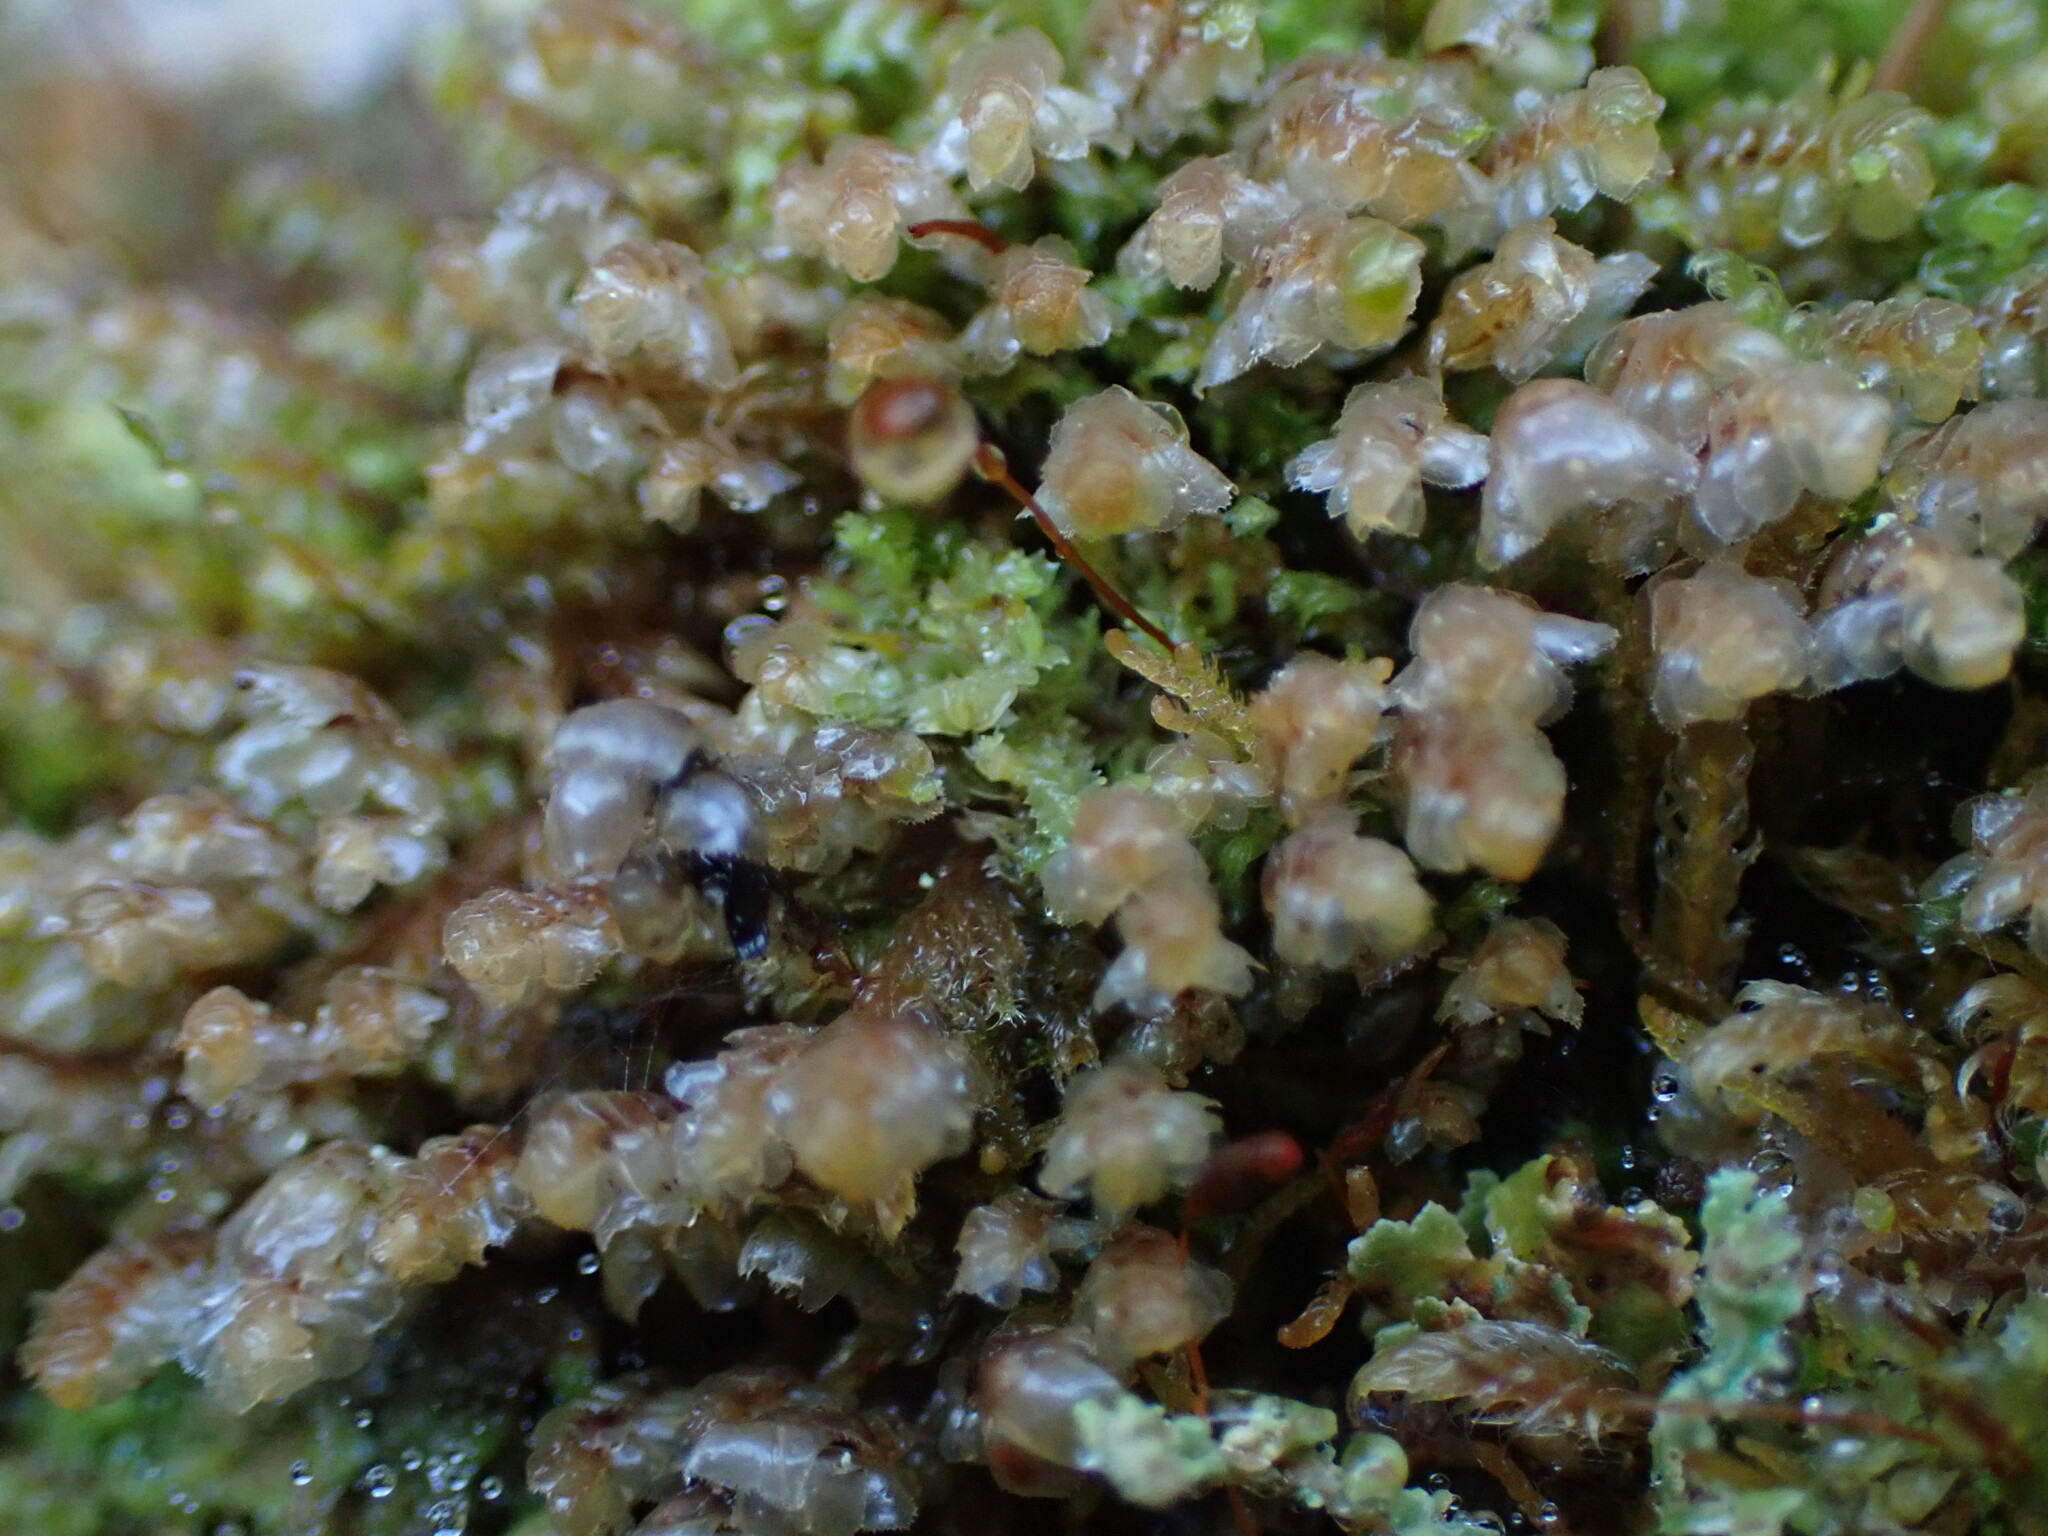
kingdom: Plantae
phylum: Marchantiophyta
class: Jungermanniopsida
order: Jungermanniales
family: Scapaniaceae
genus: Scapania
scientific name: Scapania americana
